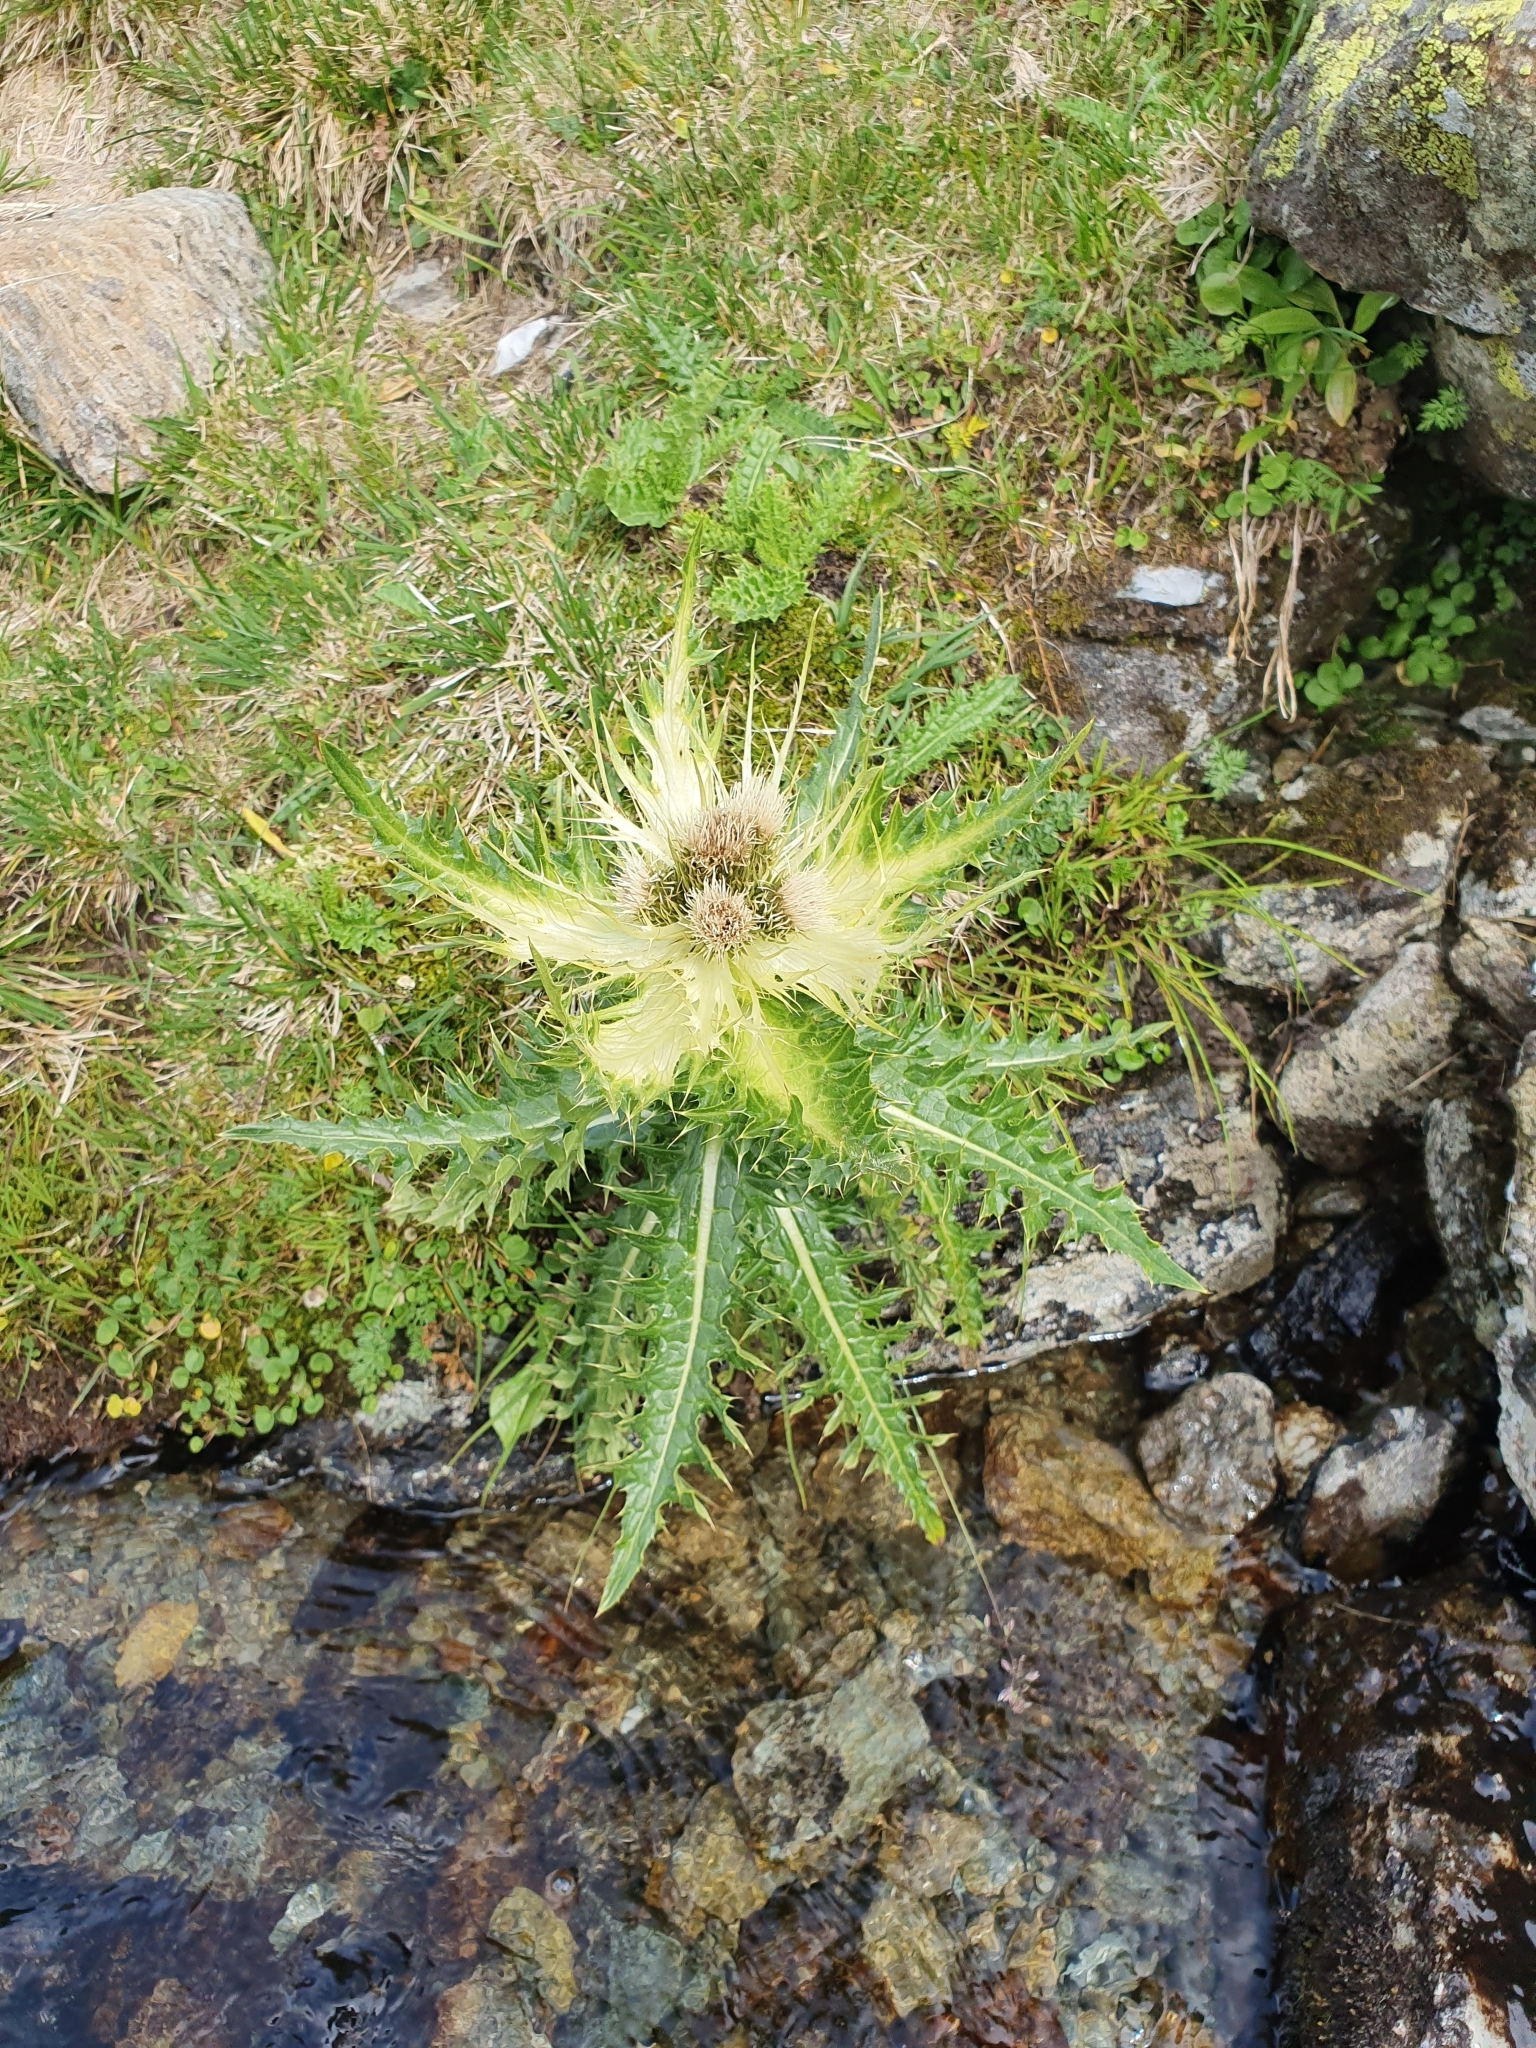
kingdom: Plantae
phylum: Tracheophyta
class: Magnoliopsida
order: Asterales
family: Asteraceae
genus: Cirsium
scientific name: Cirsium spinosissimum
